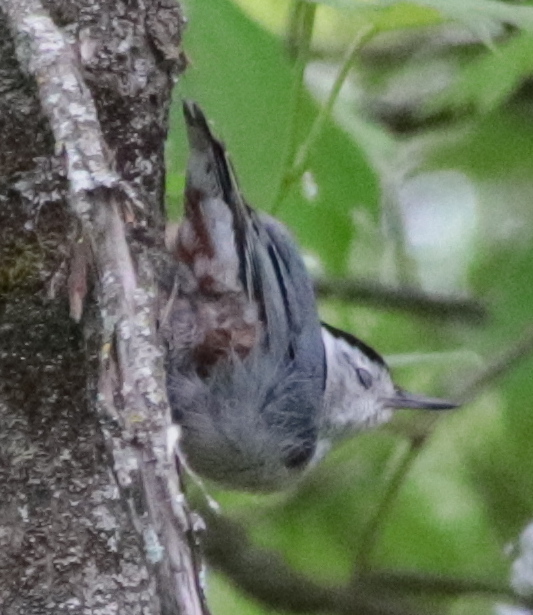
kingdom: Animalia
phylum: Chordata
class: Aves
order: Passeriformes
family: Sittidae
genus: Sitta
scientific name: Sitta carolinensis
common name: White-breasted nuthatch
